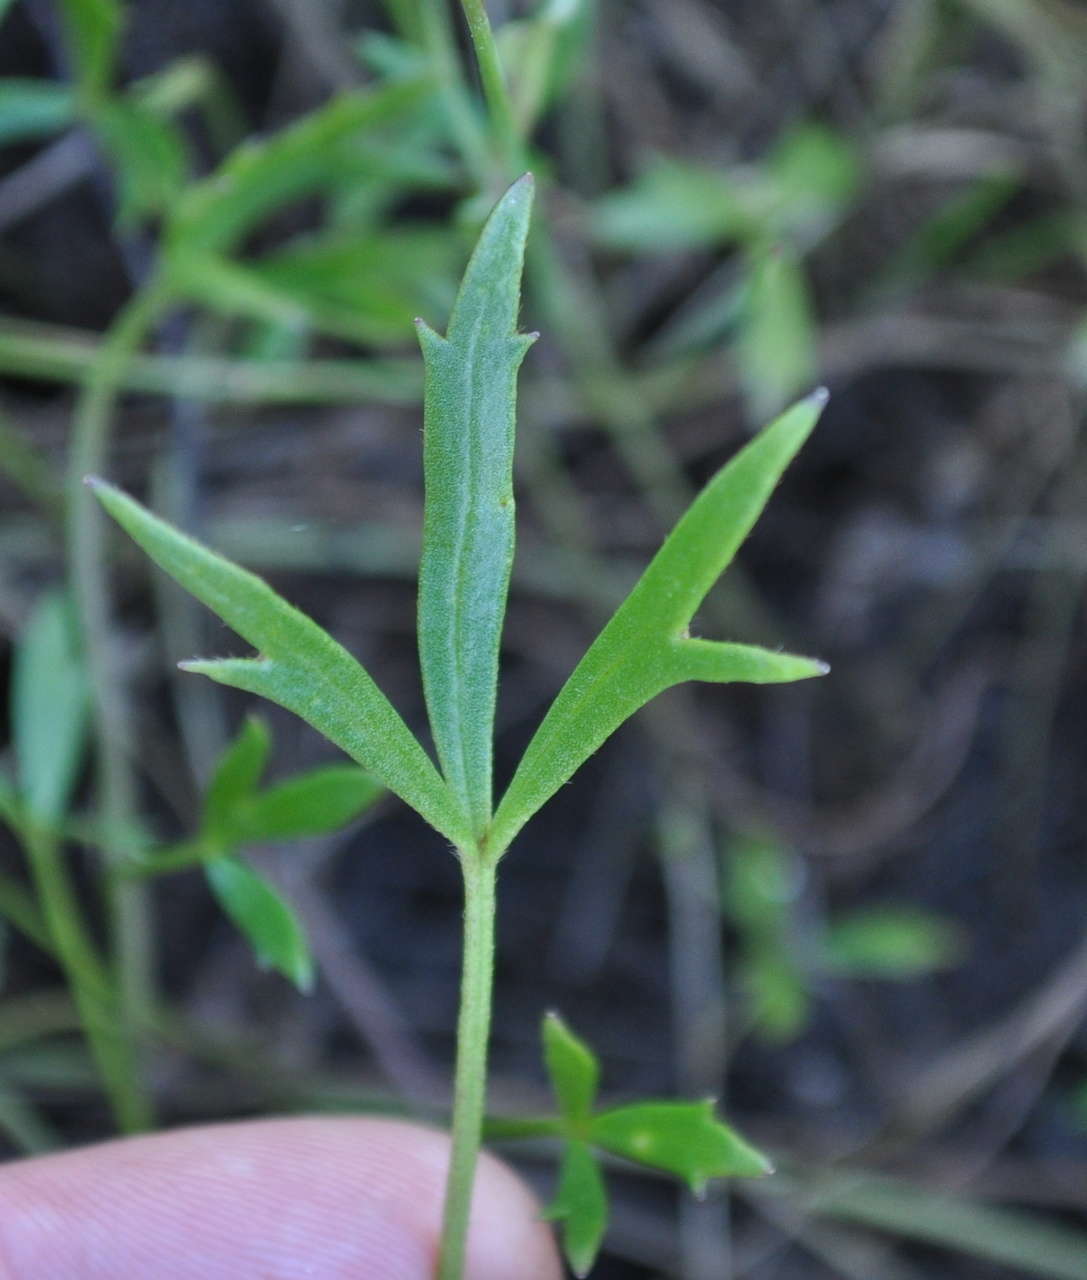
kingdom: Plantae
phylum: Tracheophyta
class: Magnoliopsida
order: Ranunculales
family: Ranunculaceae
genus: Ranunculus
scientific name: Ranunculus glabrifolius
